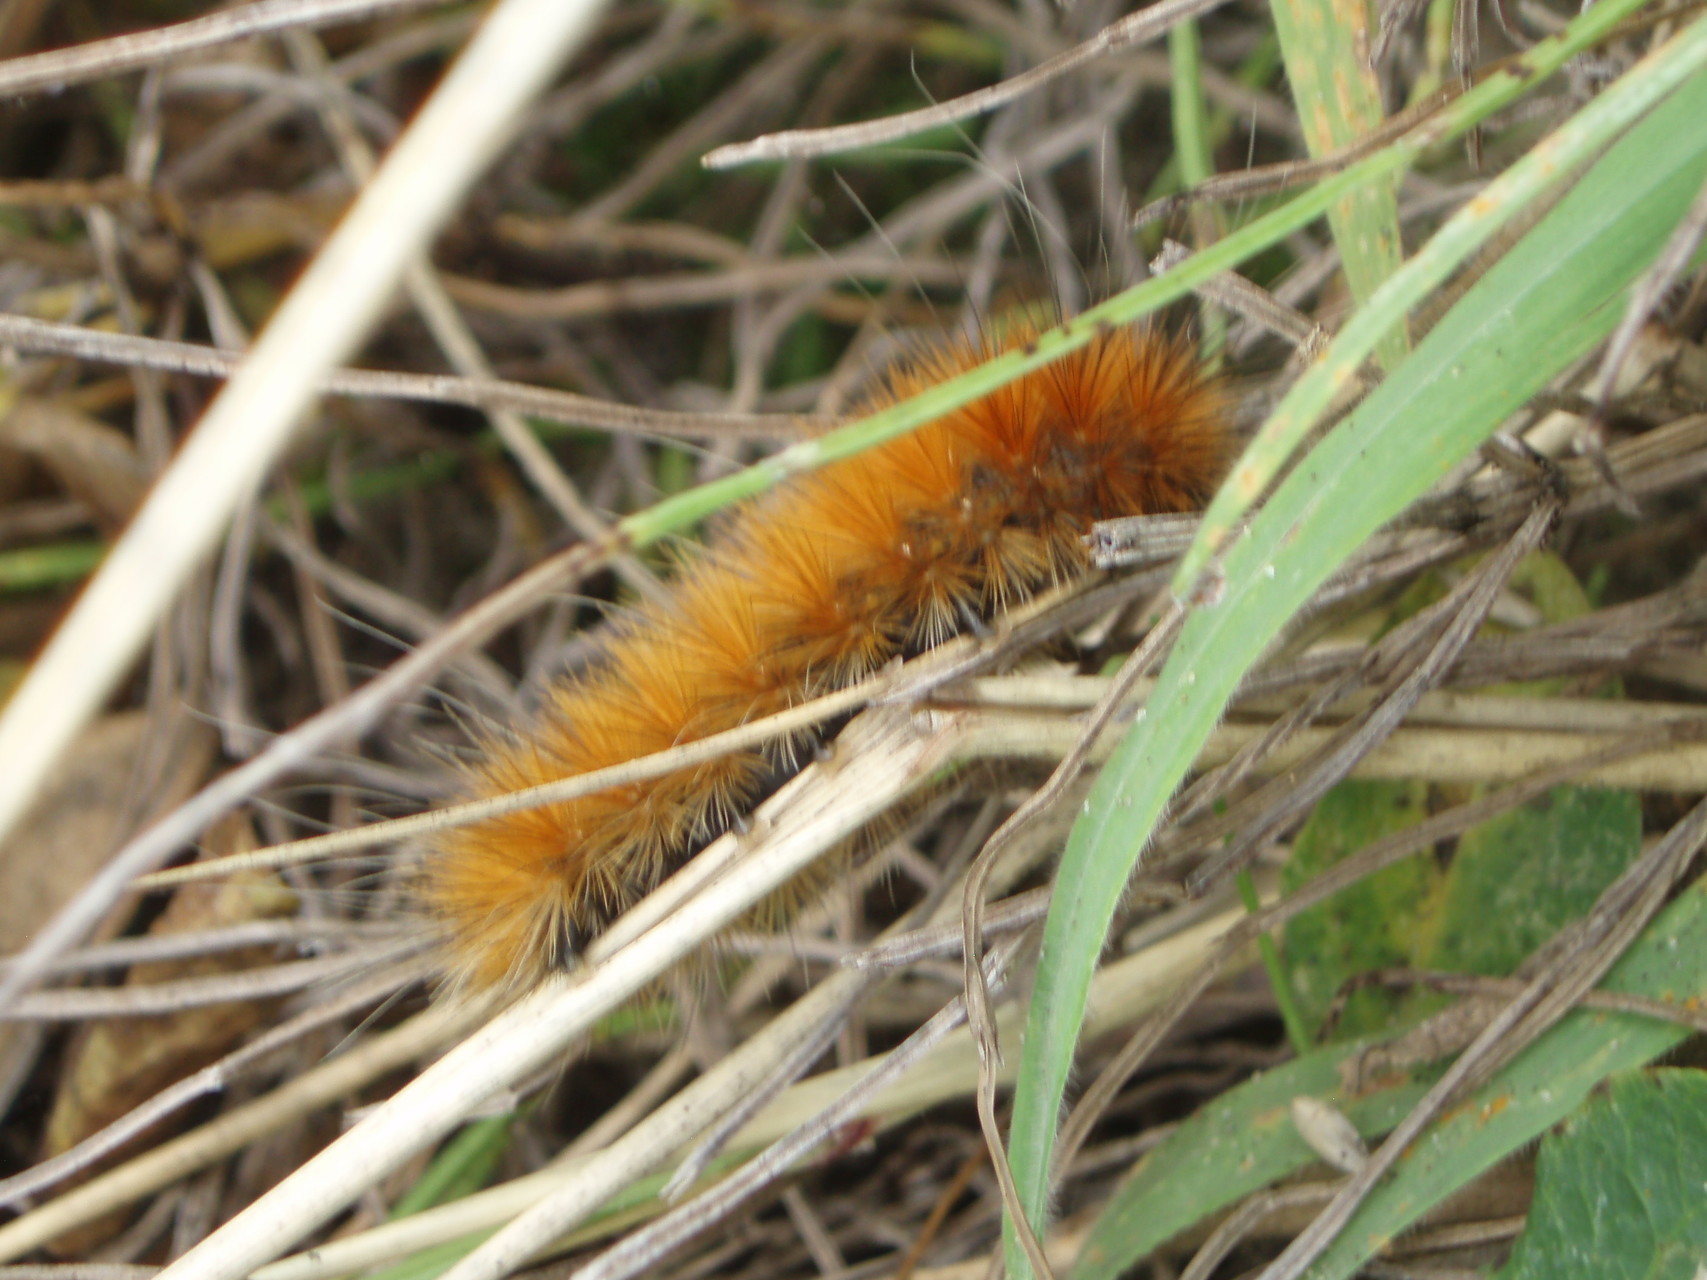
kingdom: Animalia
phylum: Arthropoda
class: Insecta
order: Lepidoptera
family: Erebidae
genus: Spilosoma
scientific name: Spilosoma virginica
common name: Virginia tiger moth
